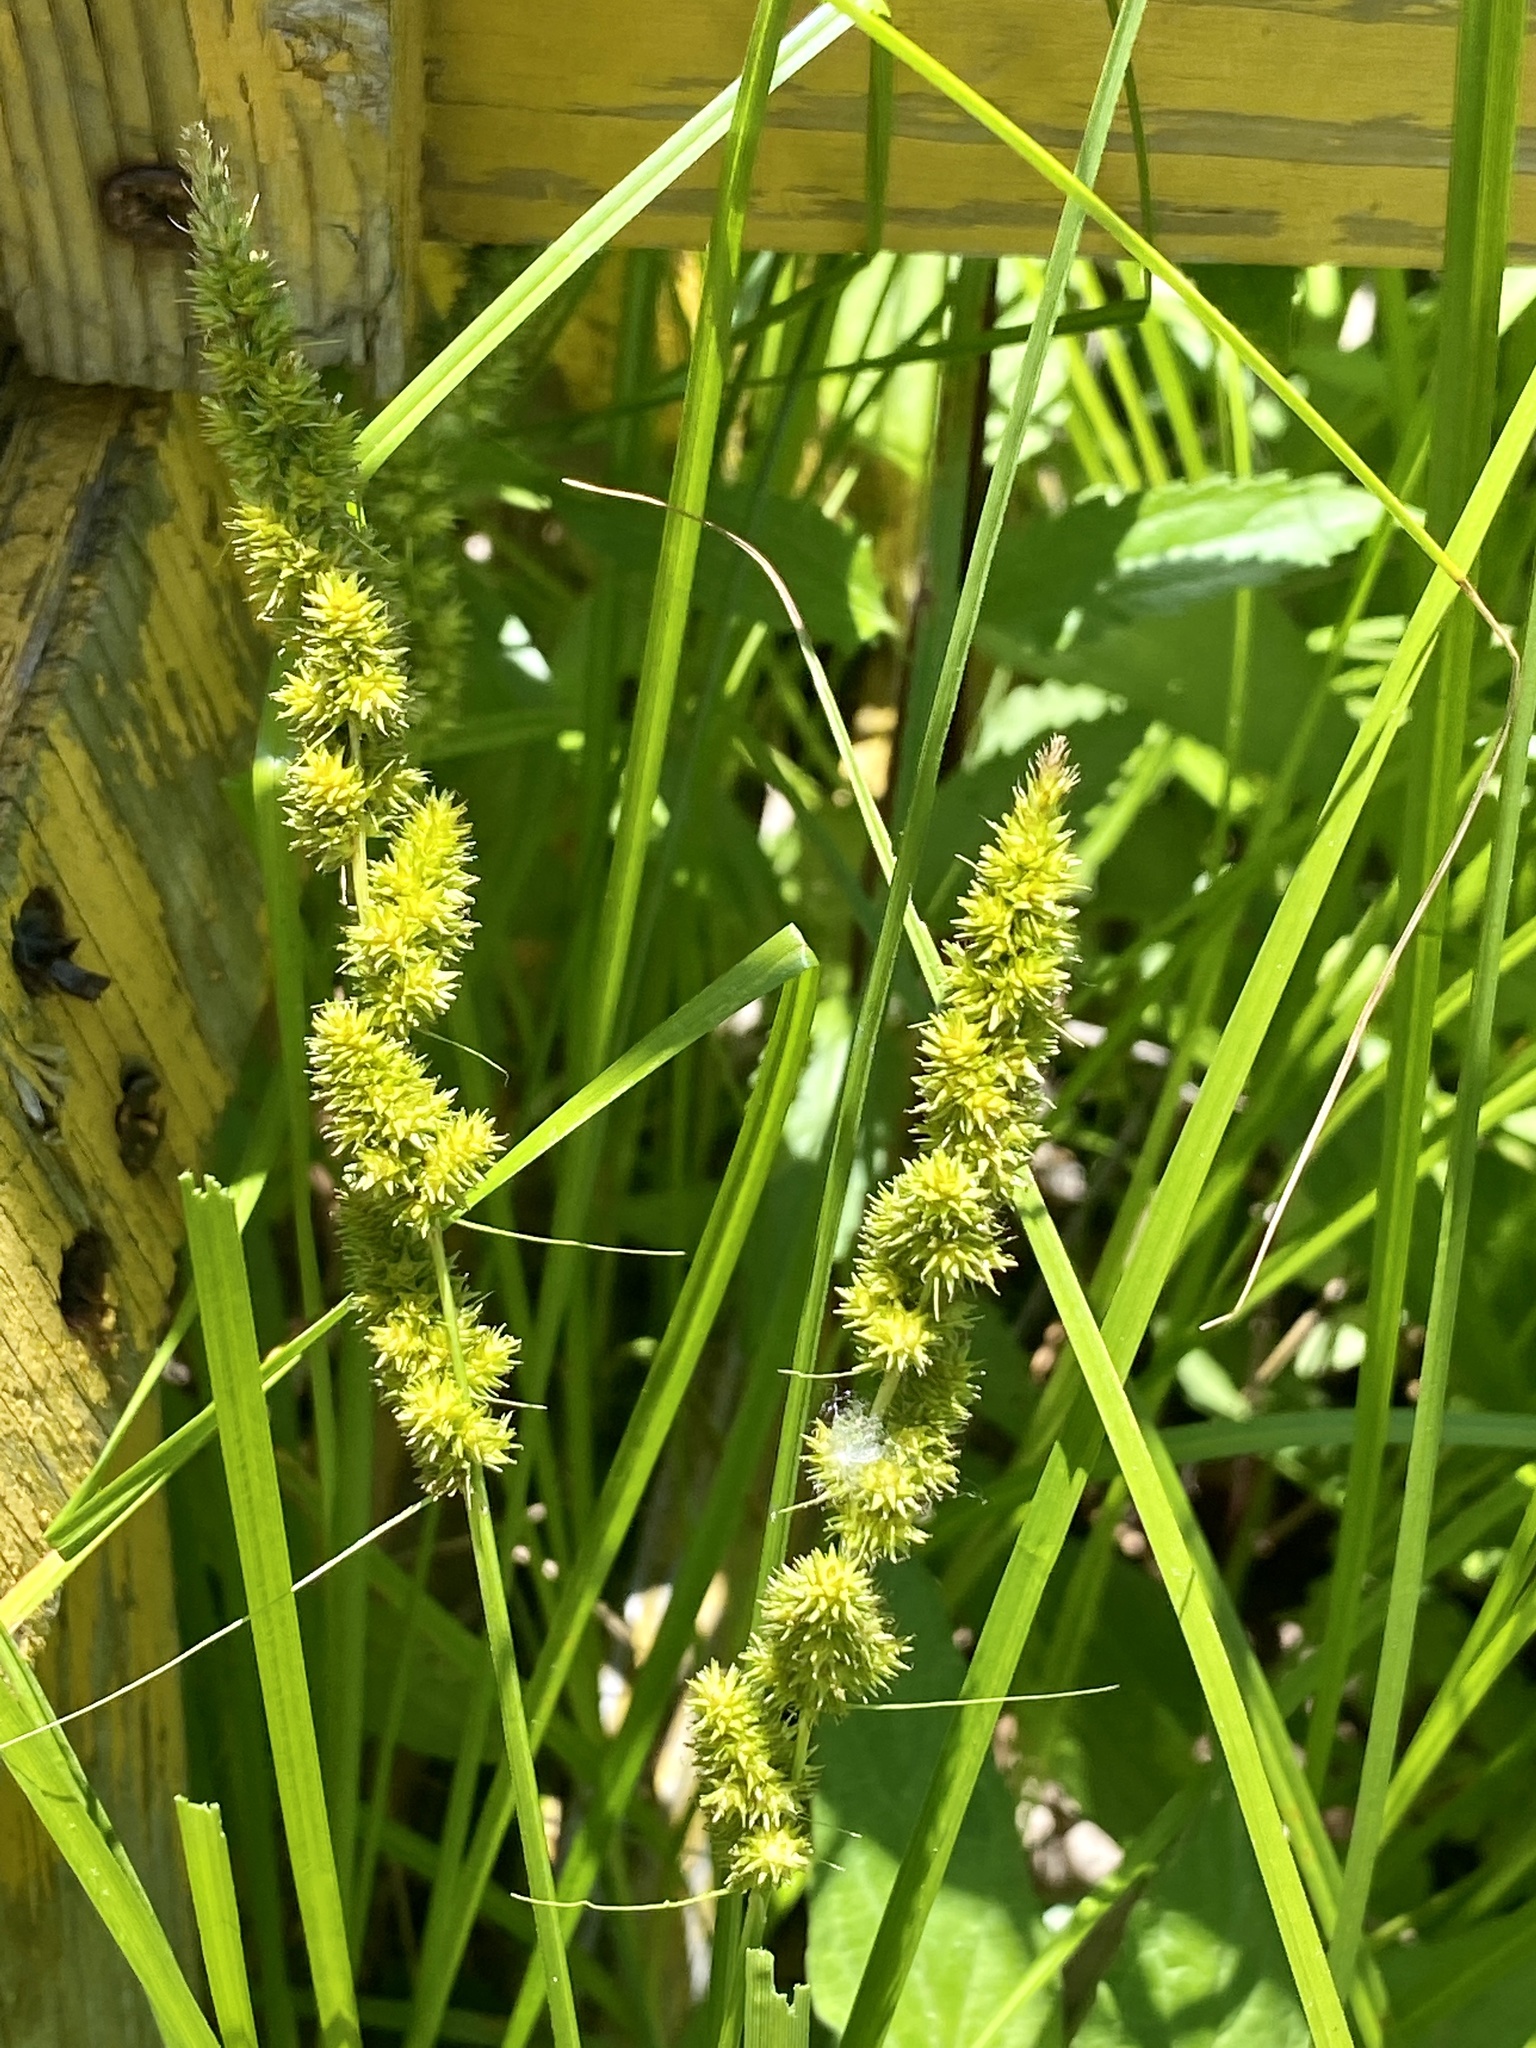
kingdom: Plantae
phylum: Tracheophyta
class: Liliopsida
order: Poales
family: Cyperaceae
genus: Carex
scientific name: Carex vulpinoidea
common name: American fox-sedge
